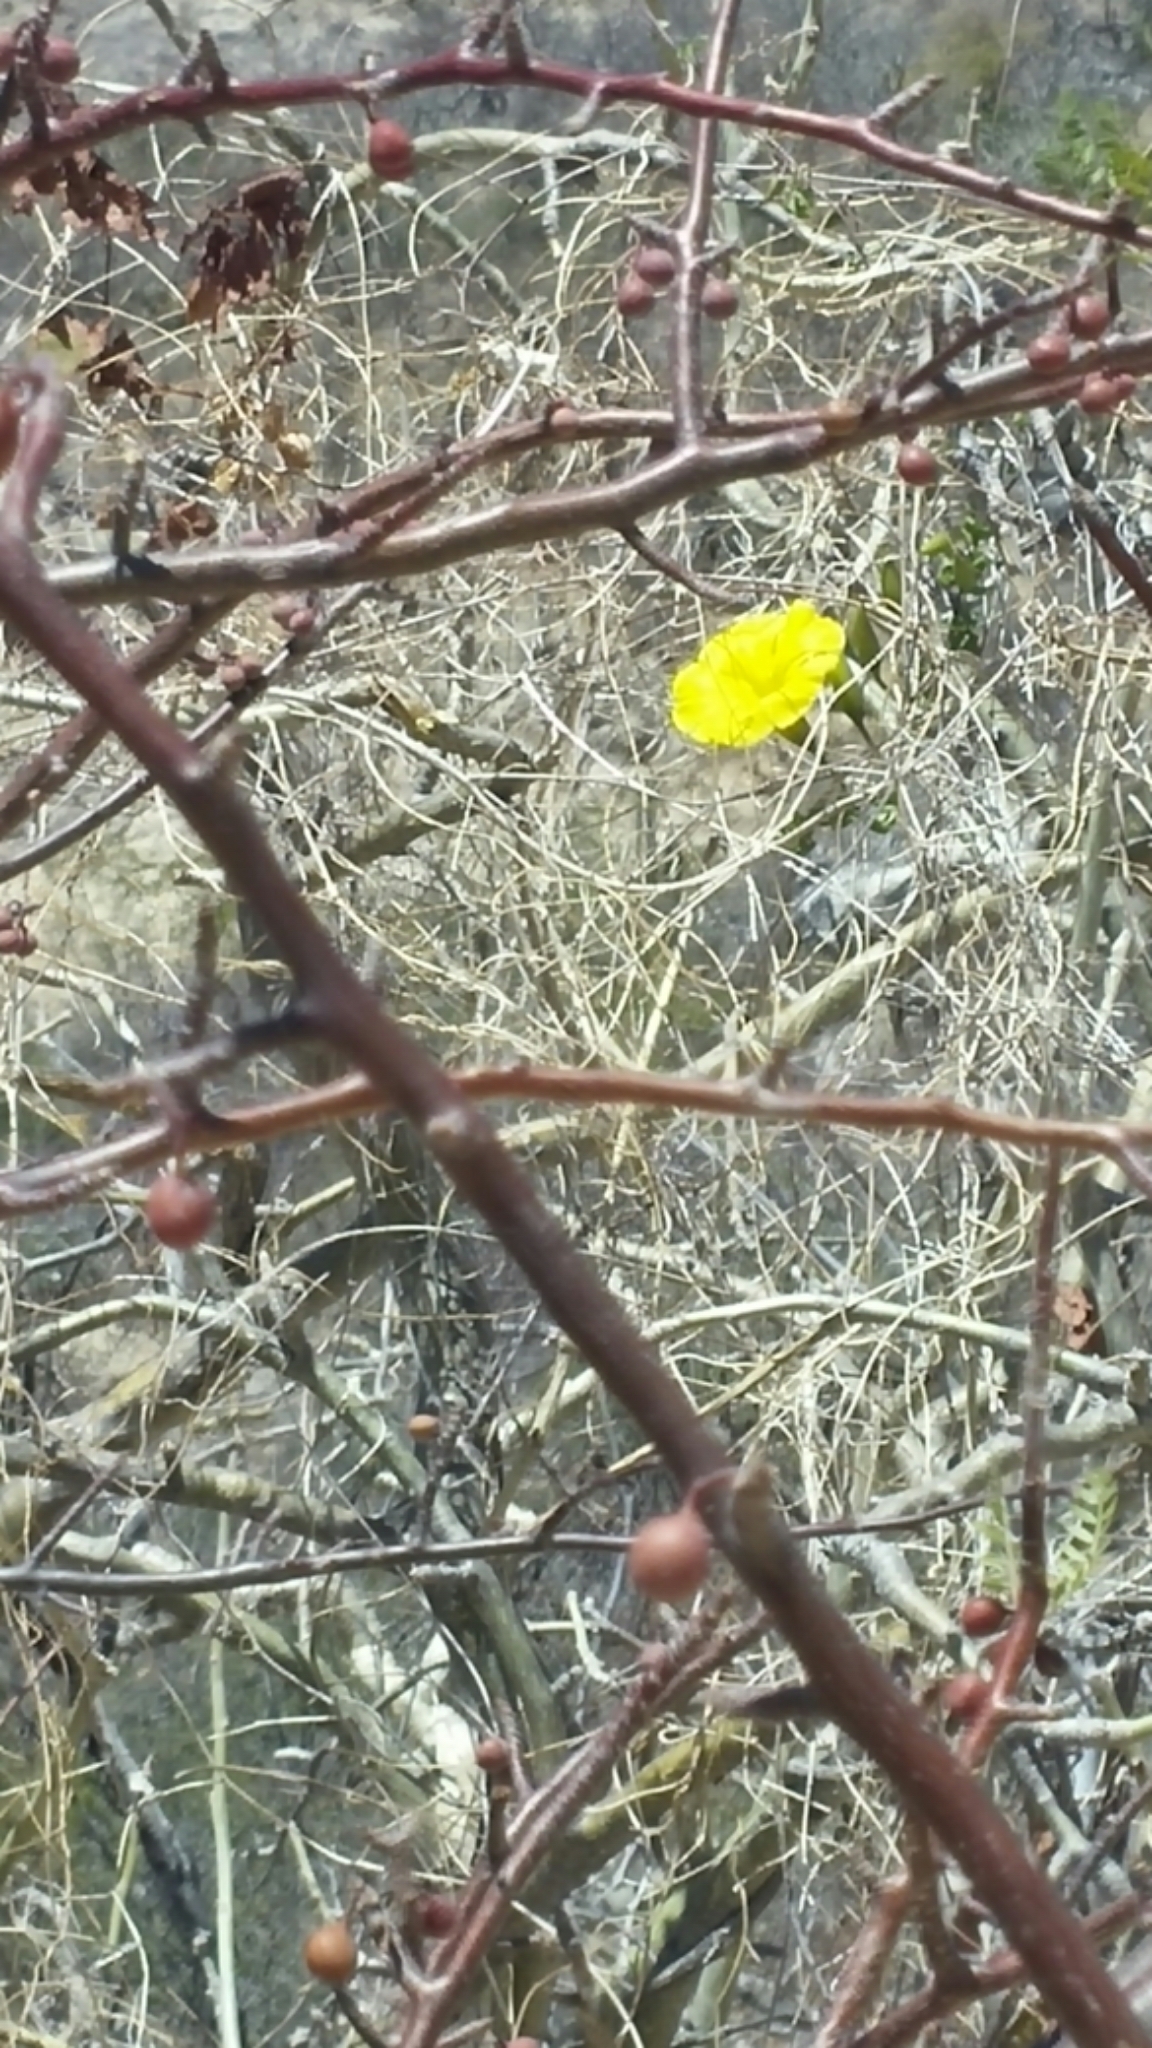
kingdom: Plantae
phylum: Tracheophyta
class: Magnoliopsida
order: Solanales
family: Convolvulaceae
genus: Distimake
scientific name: Distimake aureus
